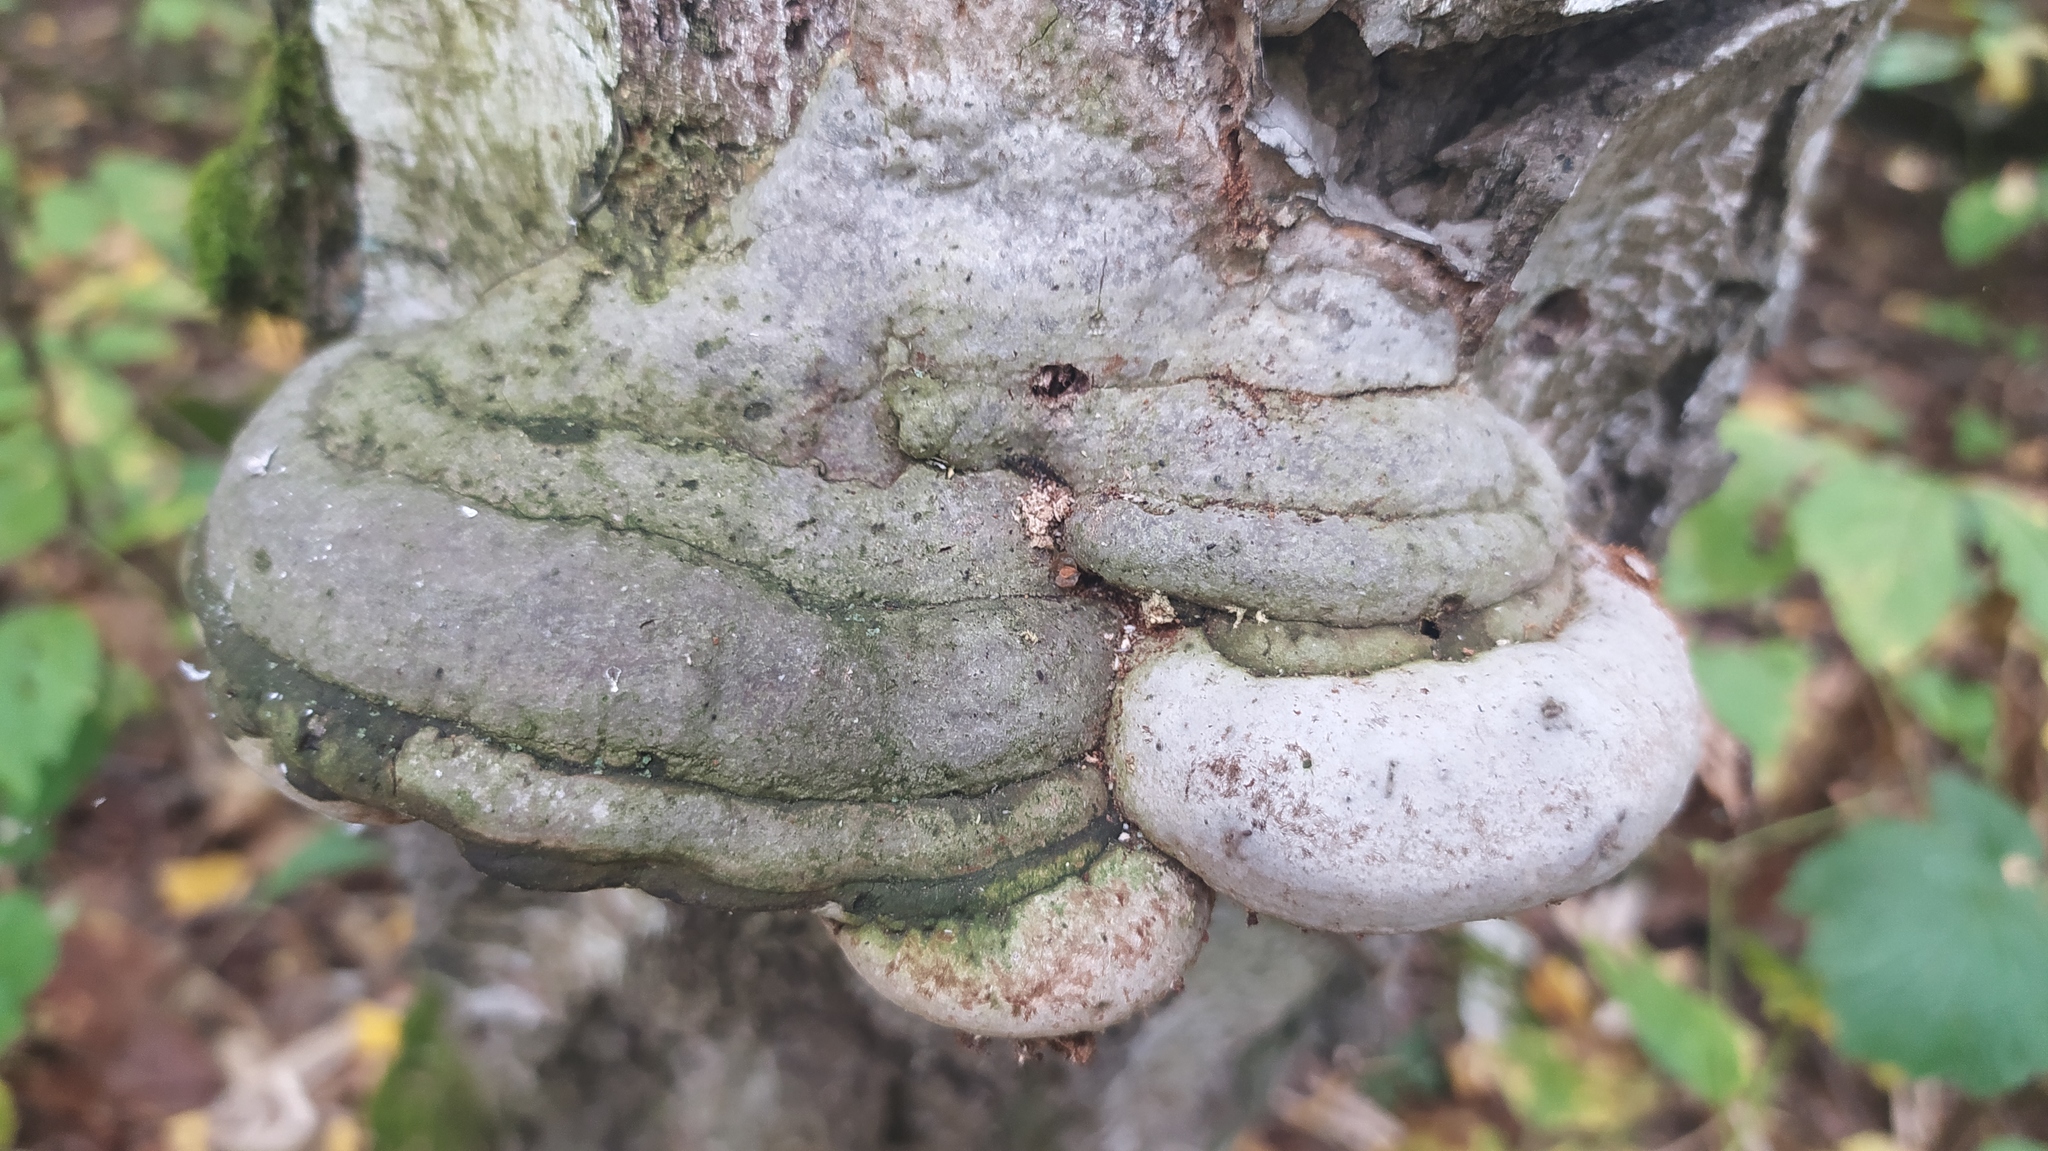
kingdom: Fungi
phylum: Basidiomycota
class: Agaricomycetes
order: Polyporales
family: Polyporaceae
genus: Fomes
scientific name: Fomes fomentarius
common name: Hoof fungus
